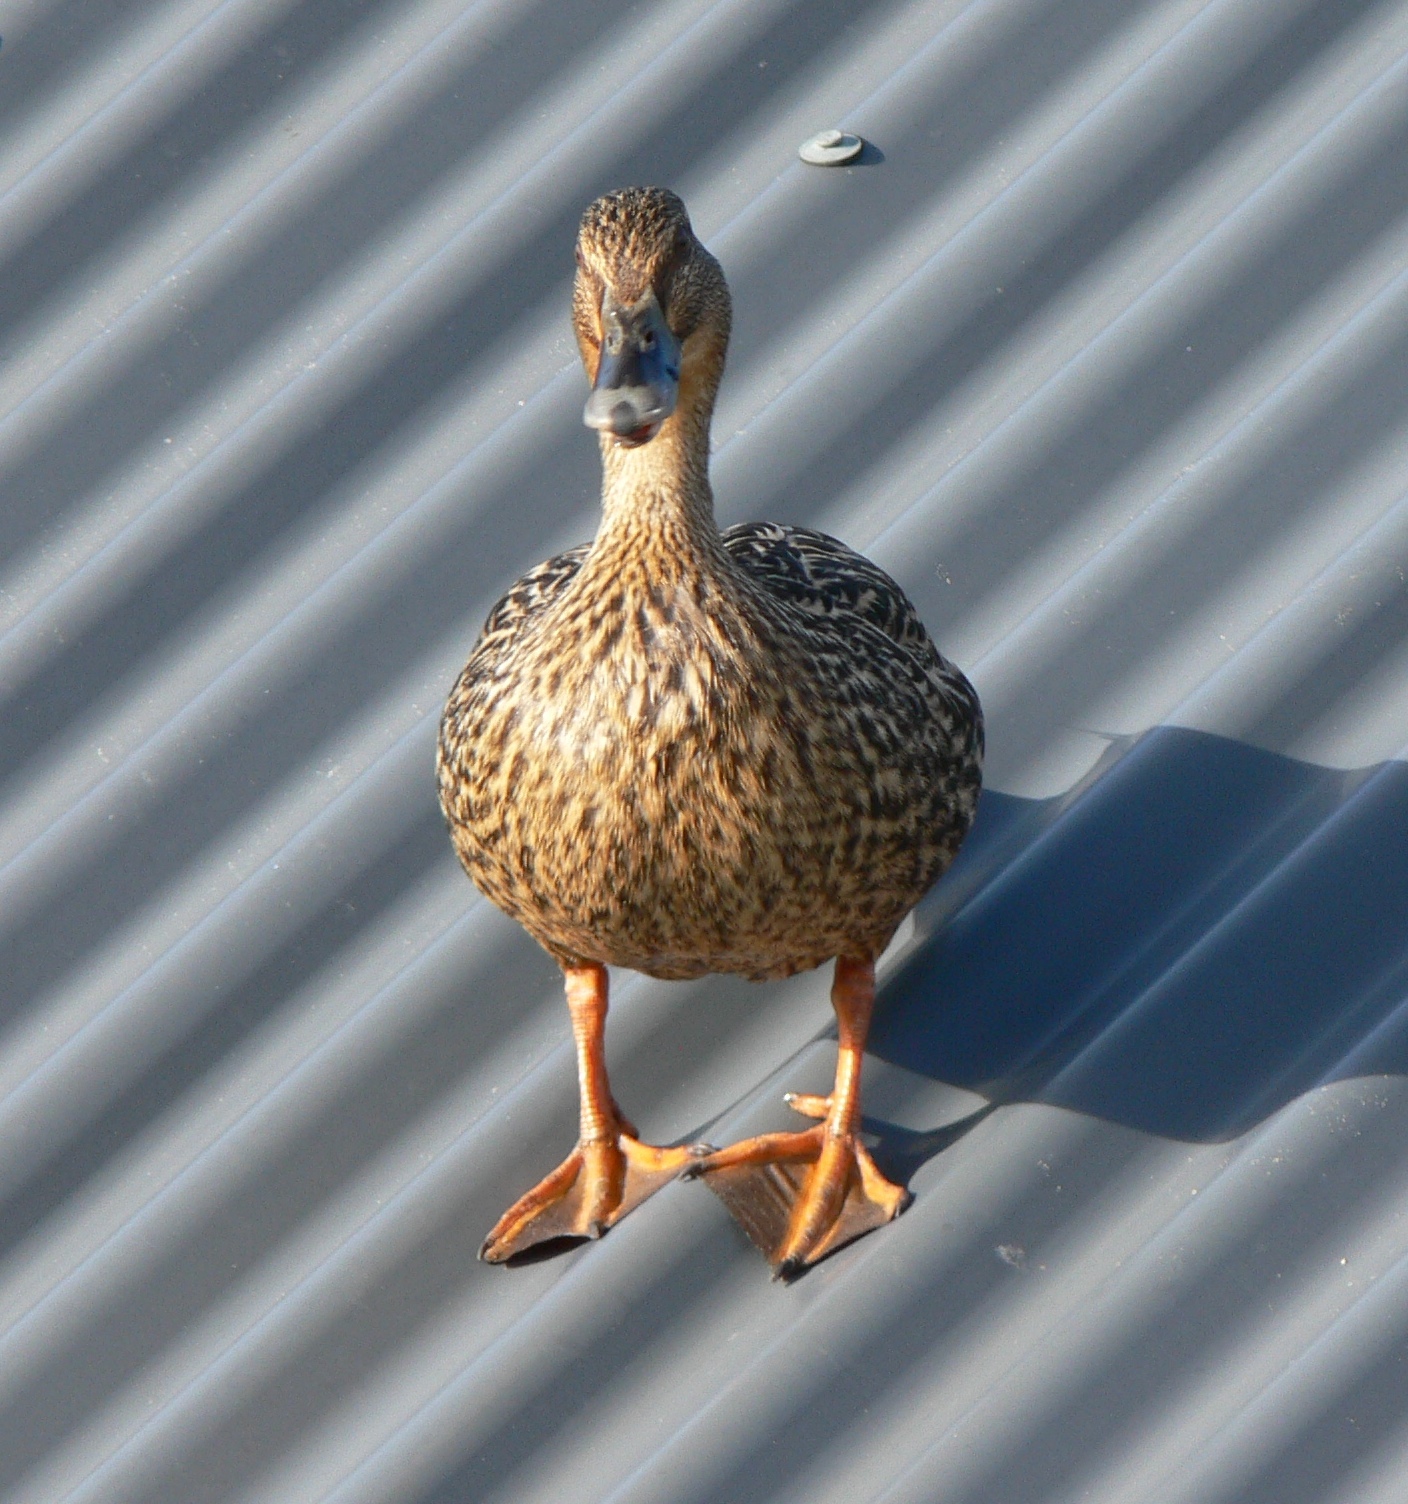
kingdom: Animalia
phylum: Chordata
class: Aves
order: Anseriformes
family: Anatidae
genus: Anas
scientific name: Anas
